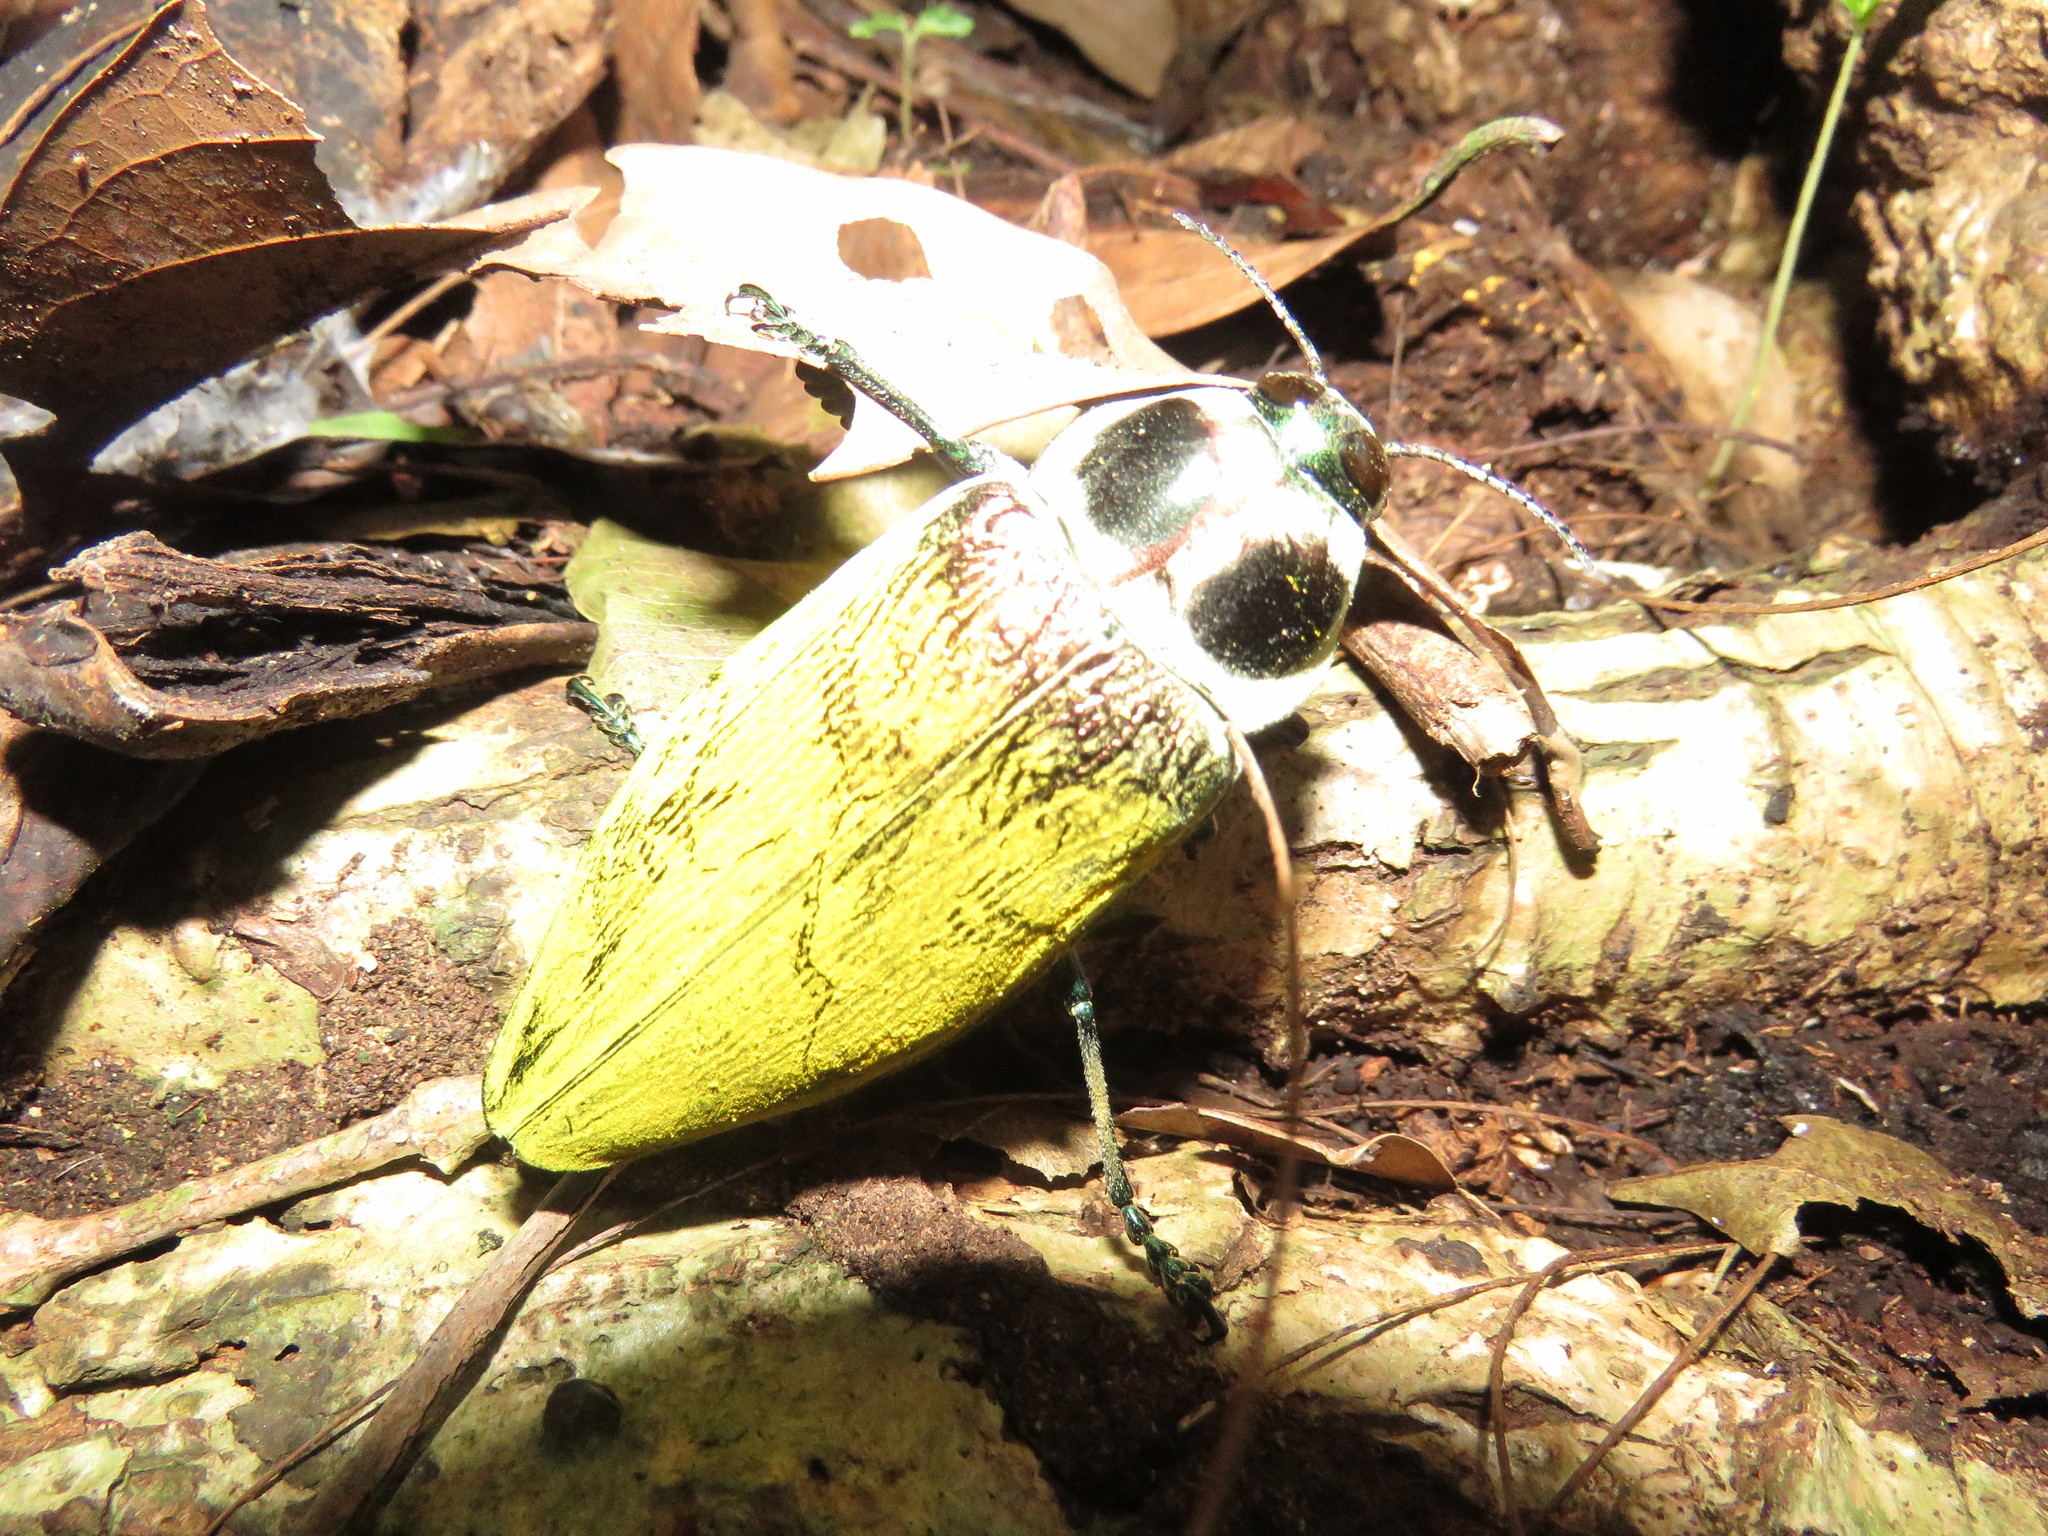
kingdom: Animalia
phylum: Arthropoda
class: Insecta
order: Coleoptera
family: Buprestidae
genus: Euchroma
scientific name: Euchroma giganteum
